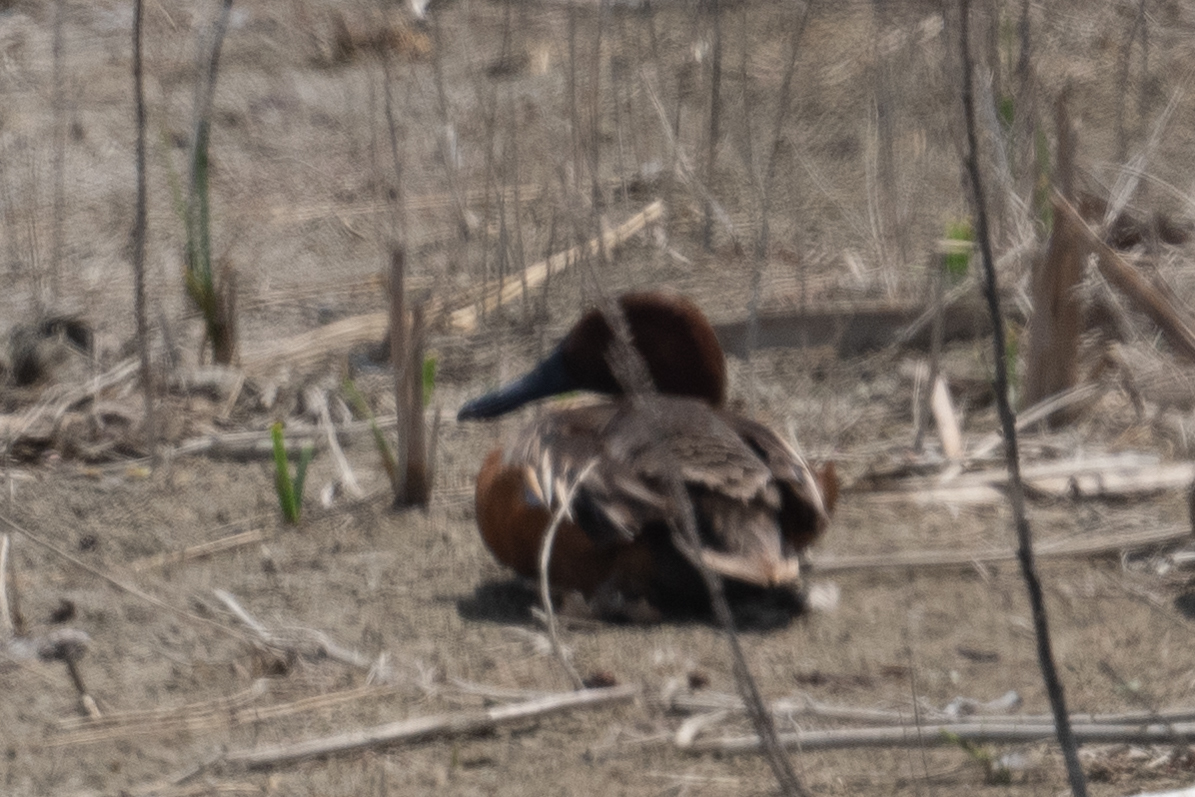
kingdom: Animalia
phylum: Chordata
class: Aves
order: Anseriformes
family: Anatidae
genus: Spatula
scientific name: Spatula cyanoptera
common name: Cinnamon teal
